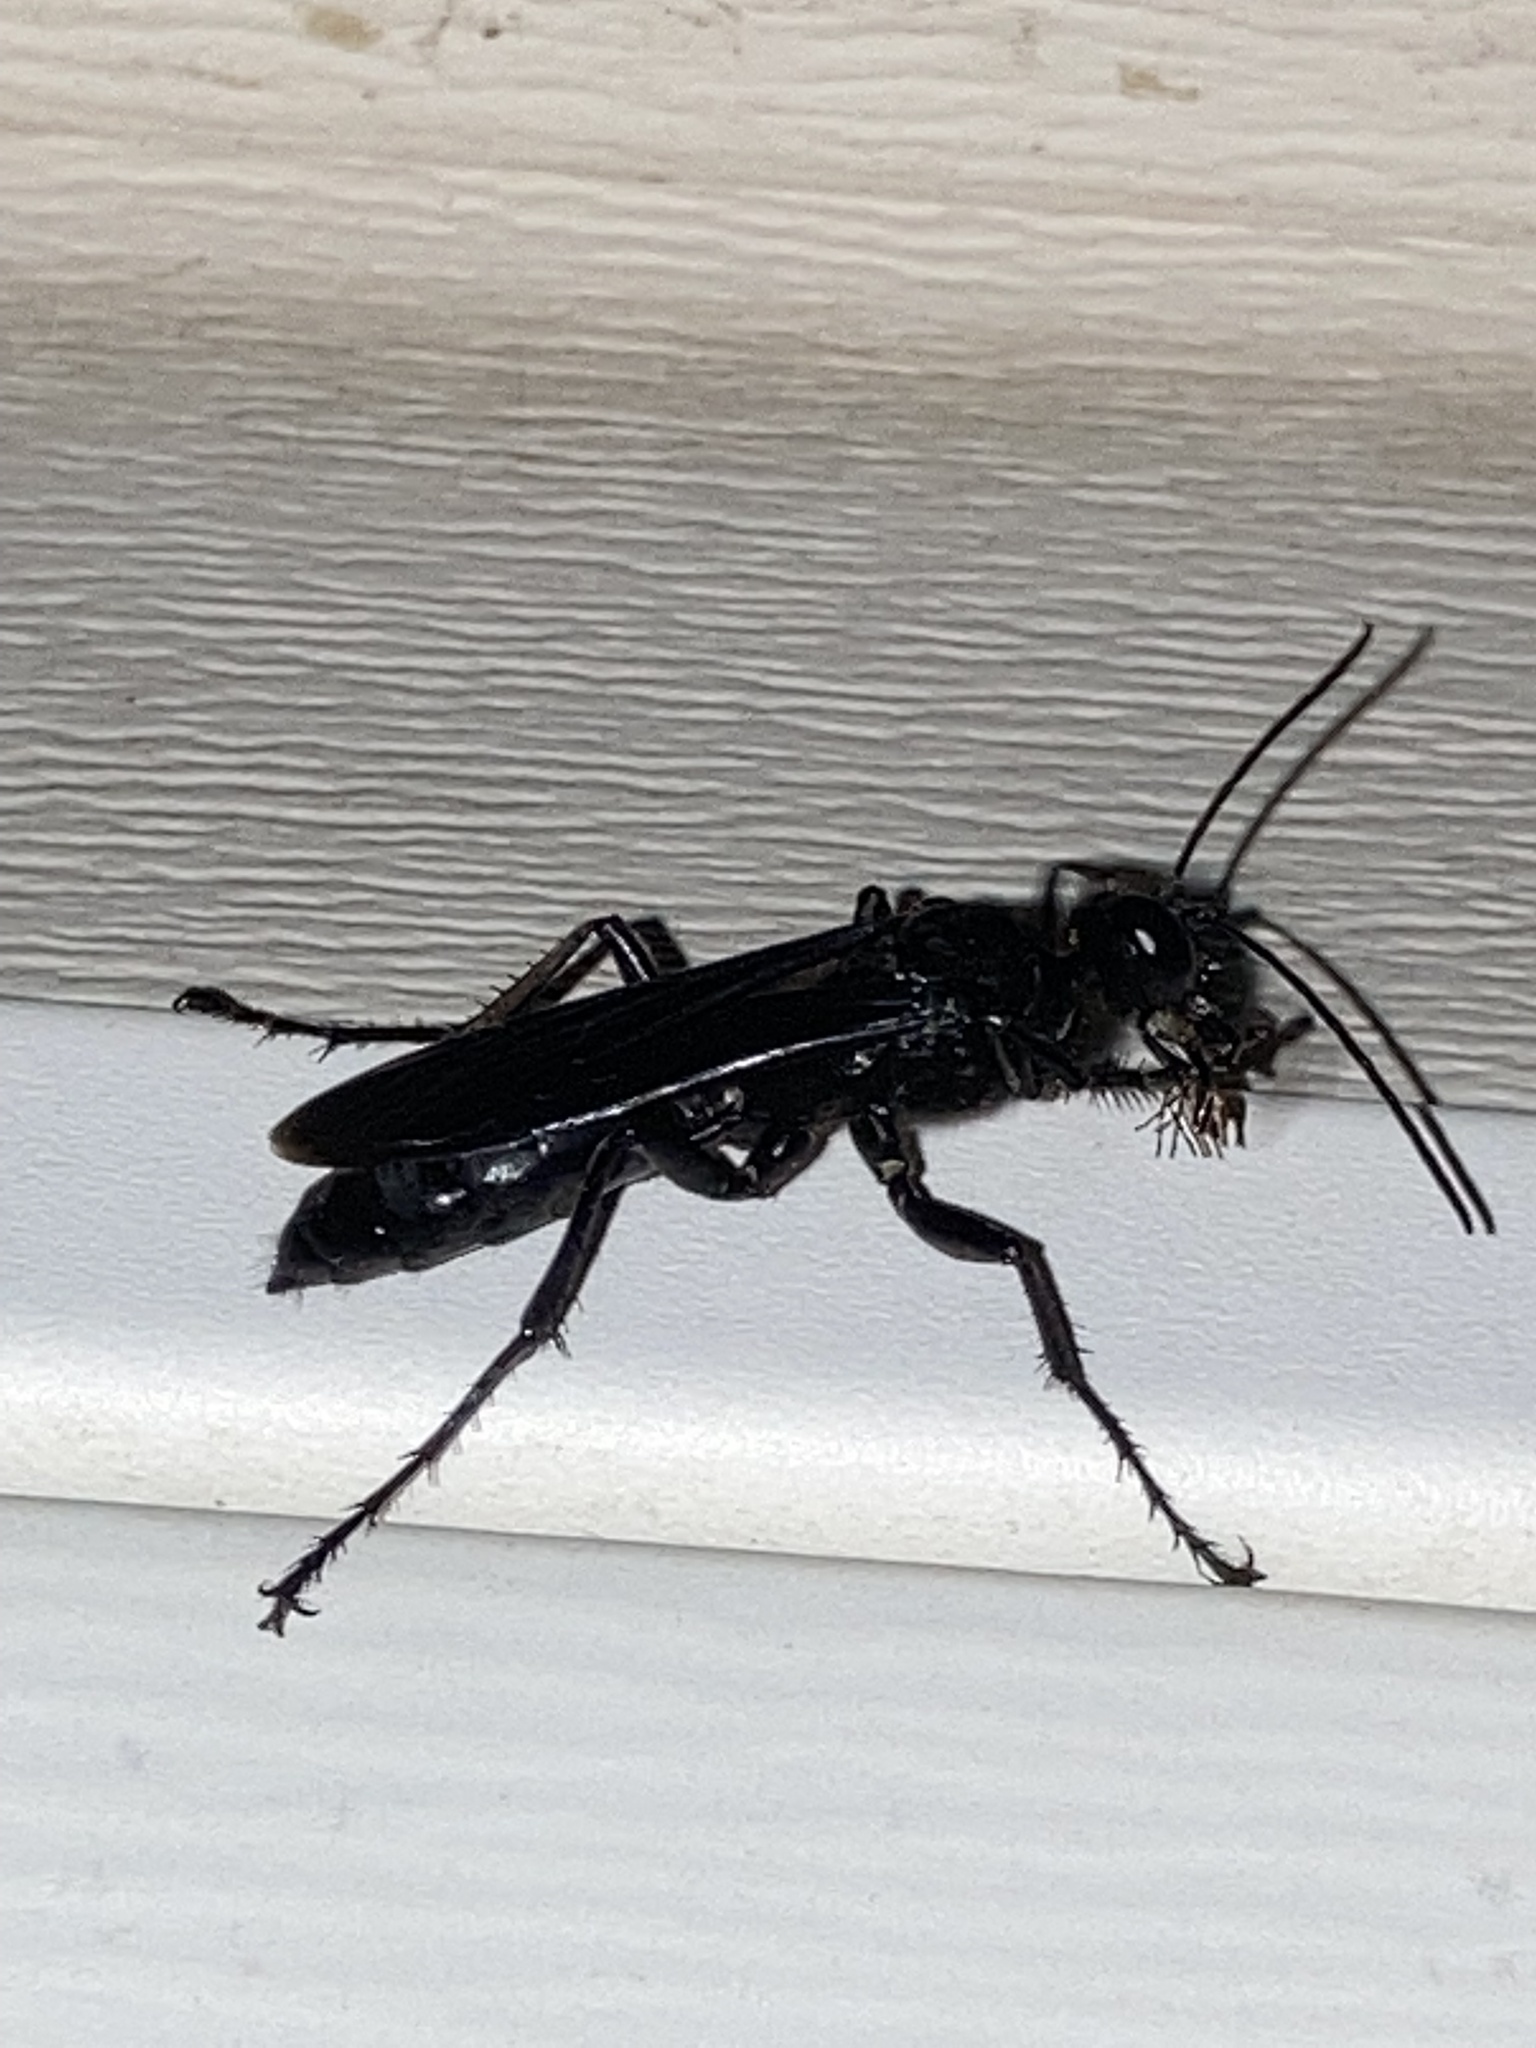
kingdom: Animalia
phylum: Arthropoda
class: Insecta
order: Hymenoptera
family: Sphecidae
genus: Sphex
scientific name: Sphex pensylvanicus
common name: Great black digger wasp
